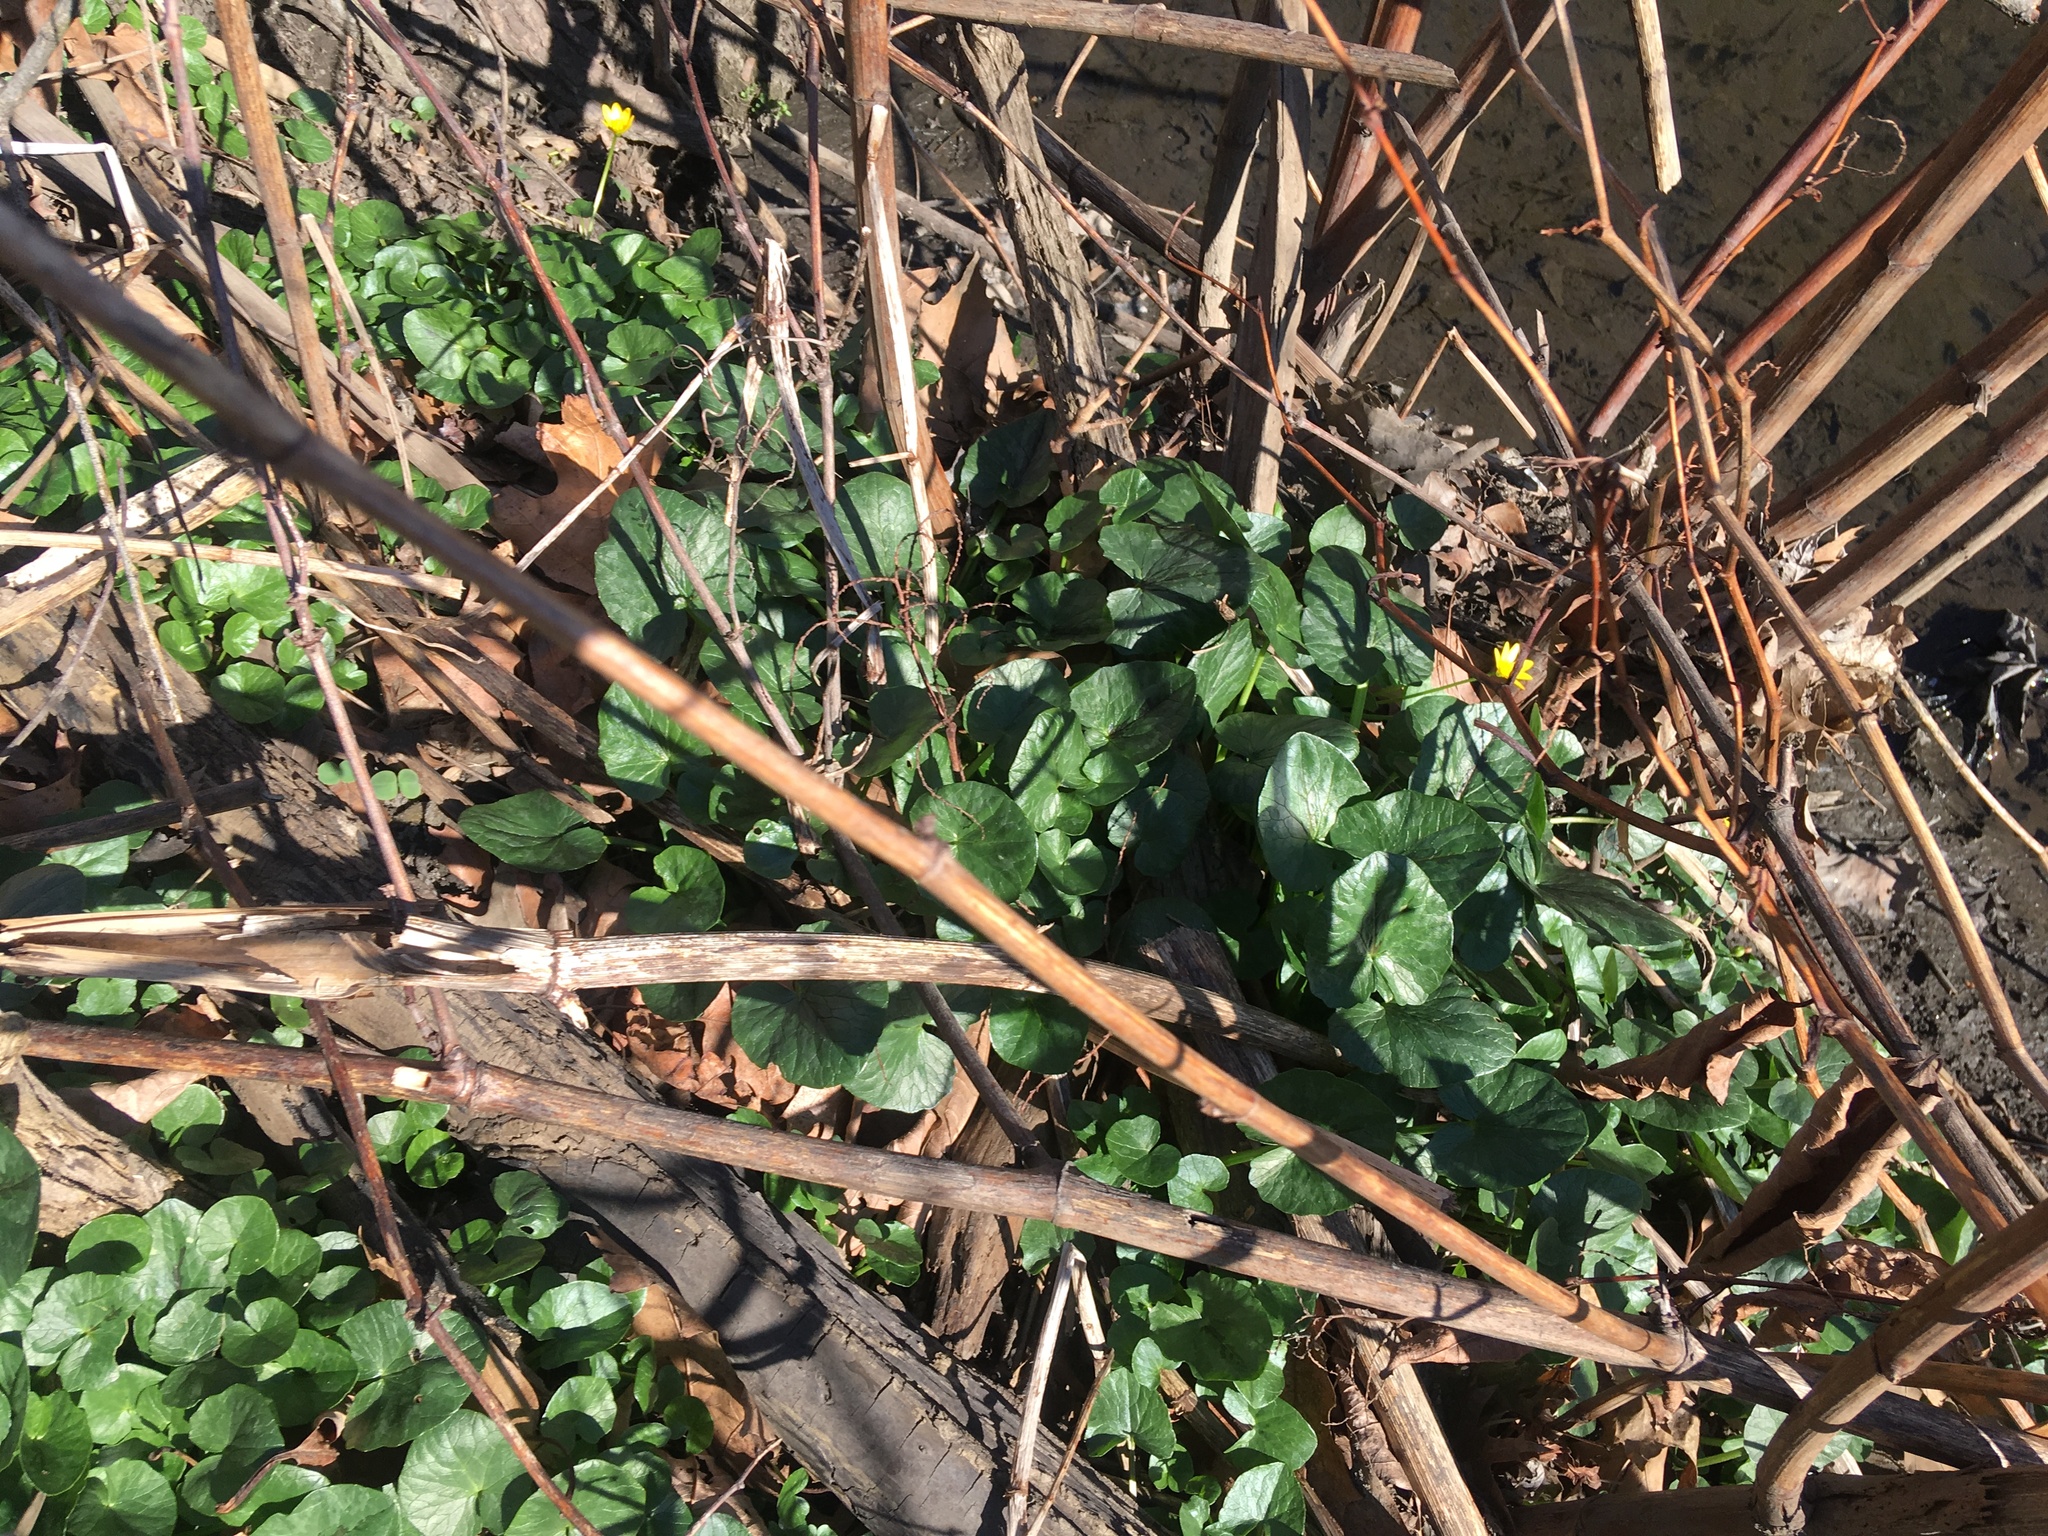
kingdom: Plantae
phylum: Tracheophyta
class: Magnoliopsida
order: Ranunculales
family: Ranunculaceae
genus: Ficaria
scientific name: Ficaria verna
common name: Lesser celandine
